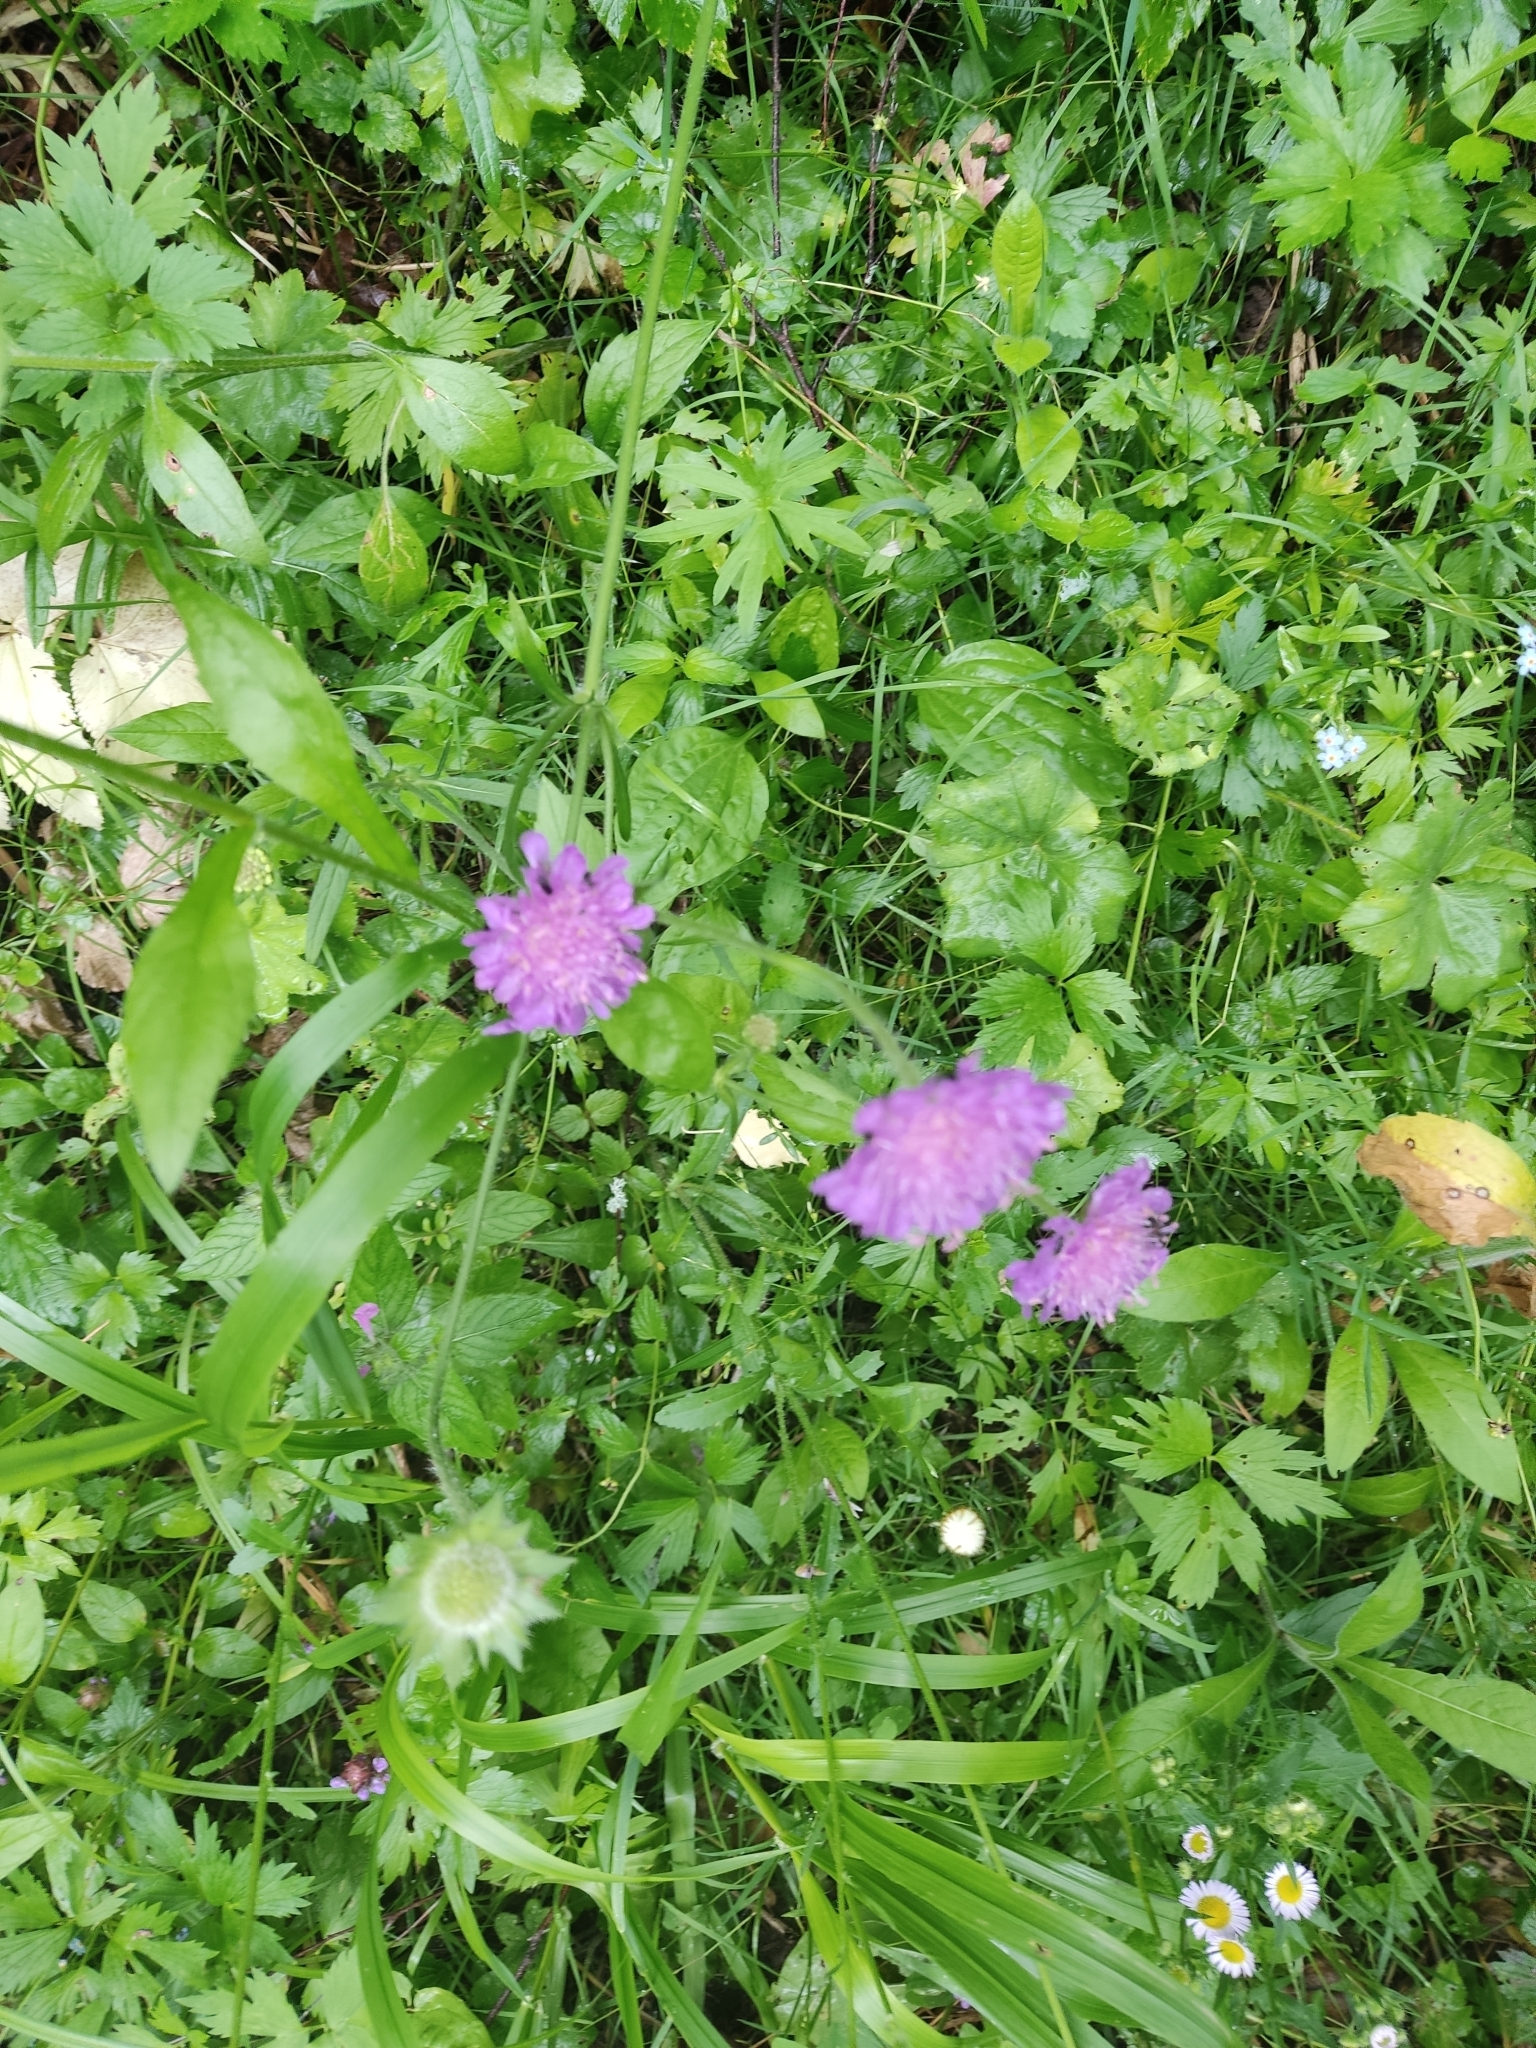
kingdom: Plantae
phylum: Tracheophyta
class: Magnoliopsida
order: Dipsacales
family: Caprifoliaceae
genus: Knautia
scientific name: Knautia arvensis
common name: Field scabiosa
